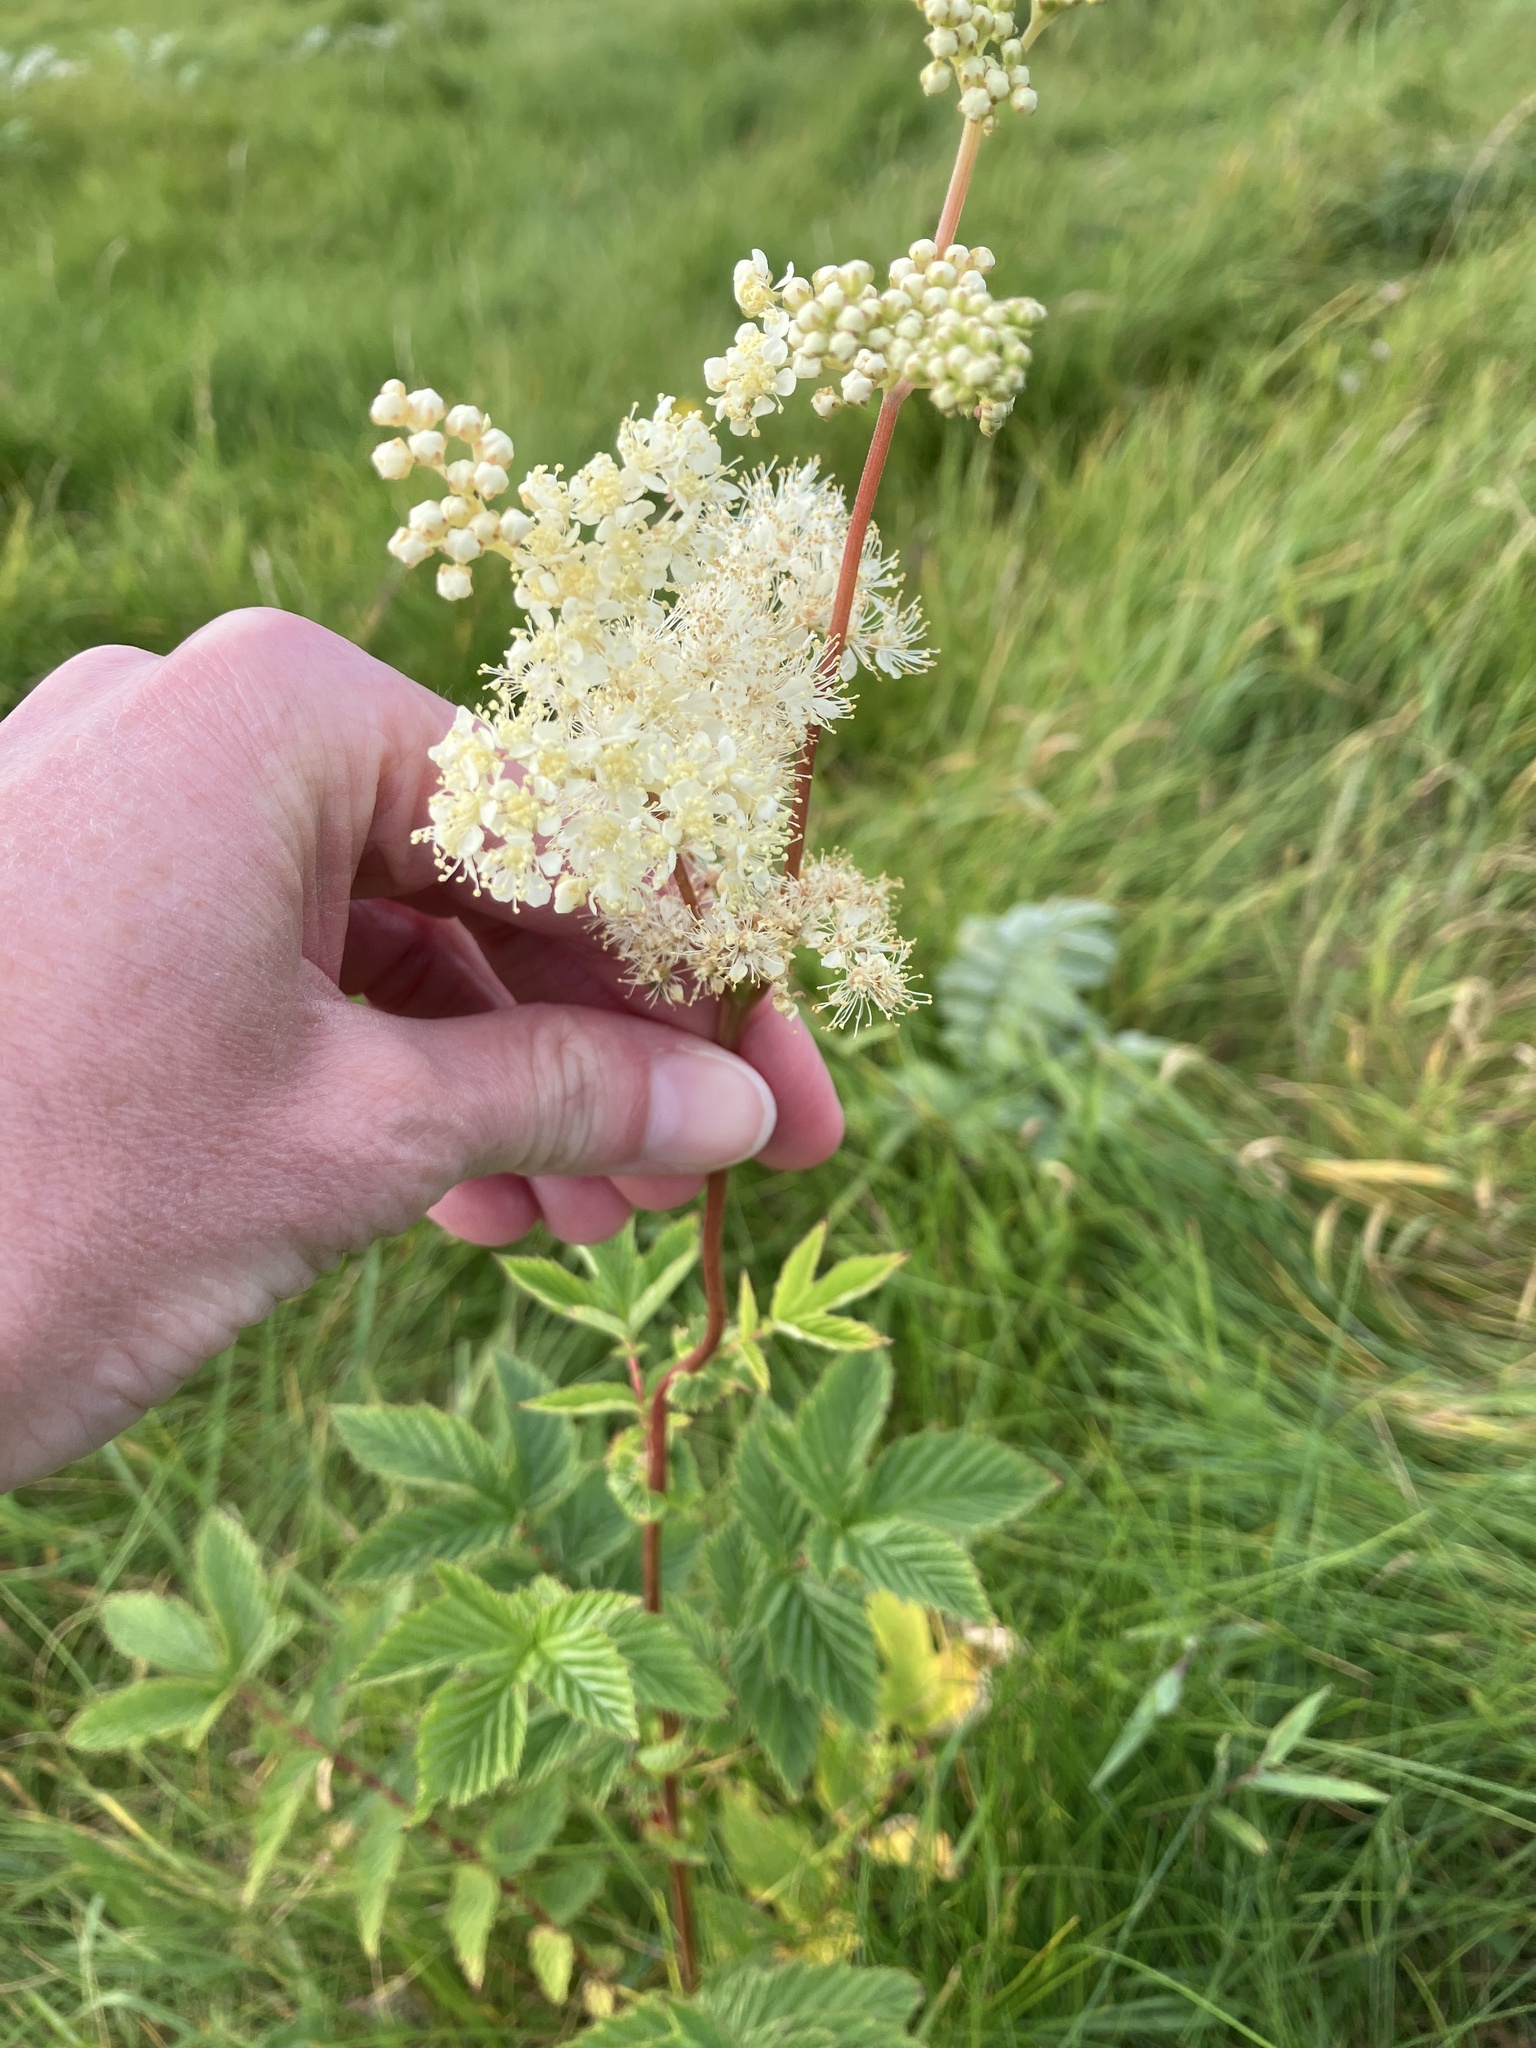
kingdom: Plantae
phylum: Tracheophyta
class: Magnoliopsida
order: Rosales
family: Rosaceae
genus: Filipendula
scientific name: Filipendula ulmaria
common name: Meadowsweet
